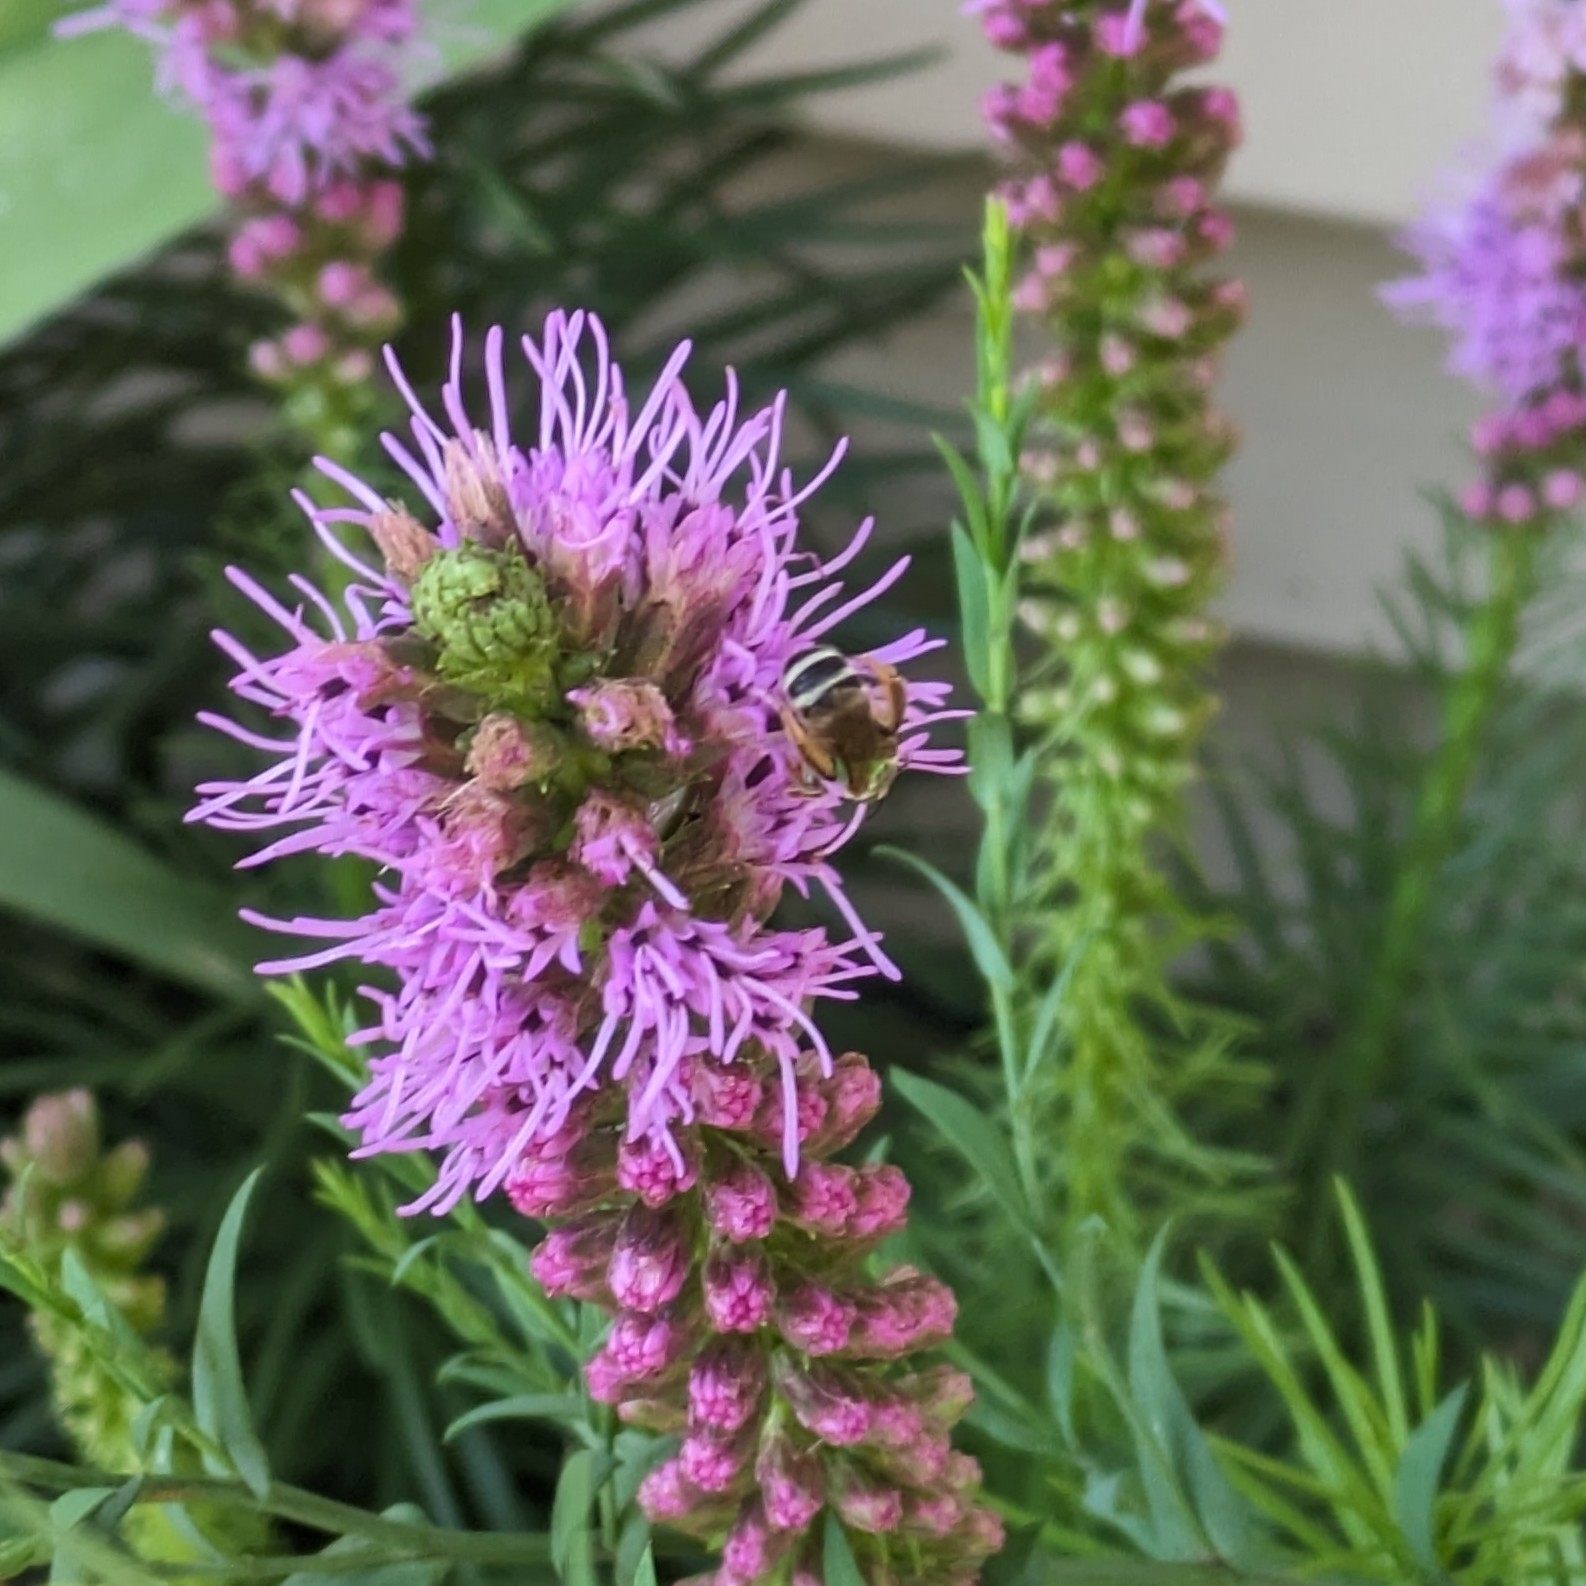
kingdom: Animalia
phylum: Arthropoda
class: Insecta
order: Hymenoptera
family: Halictidae
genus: Agapostemon
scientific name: Agapostemon virescens
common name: Bicolored striped sweat bee
